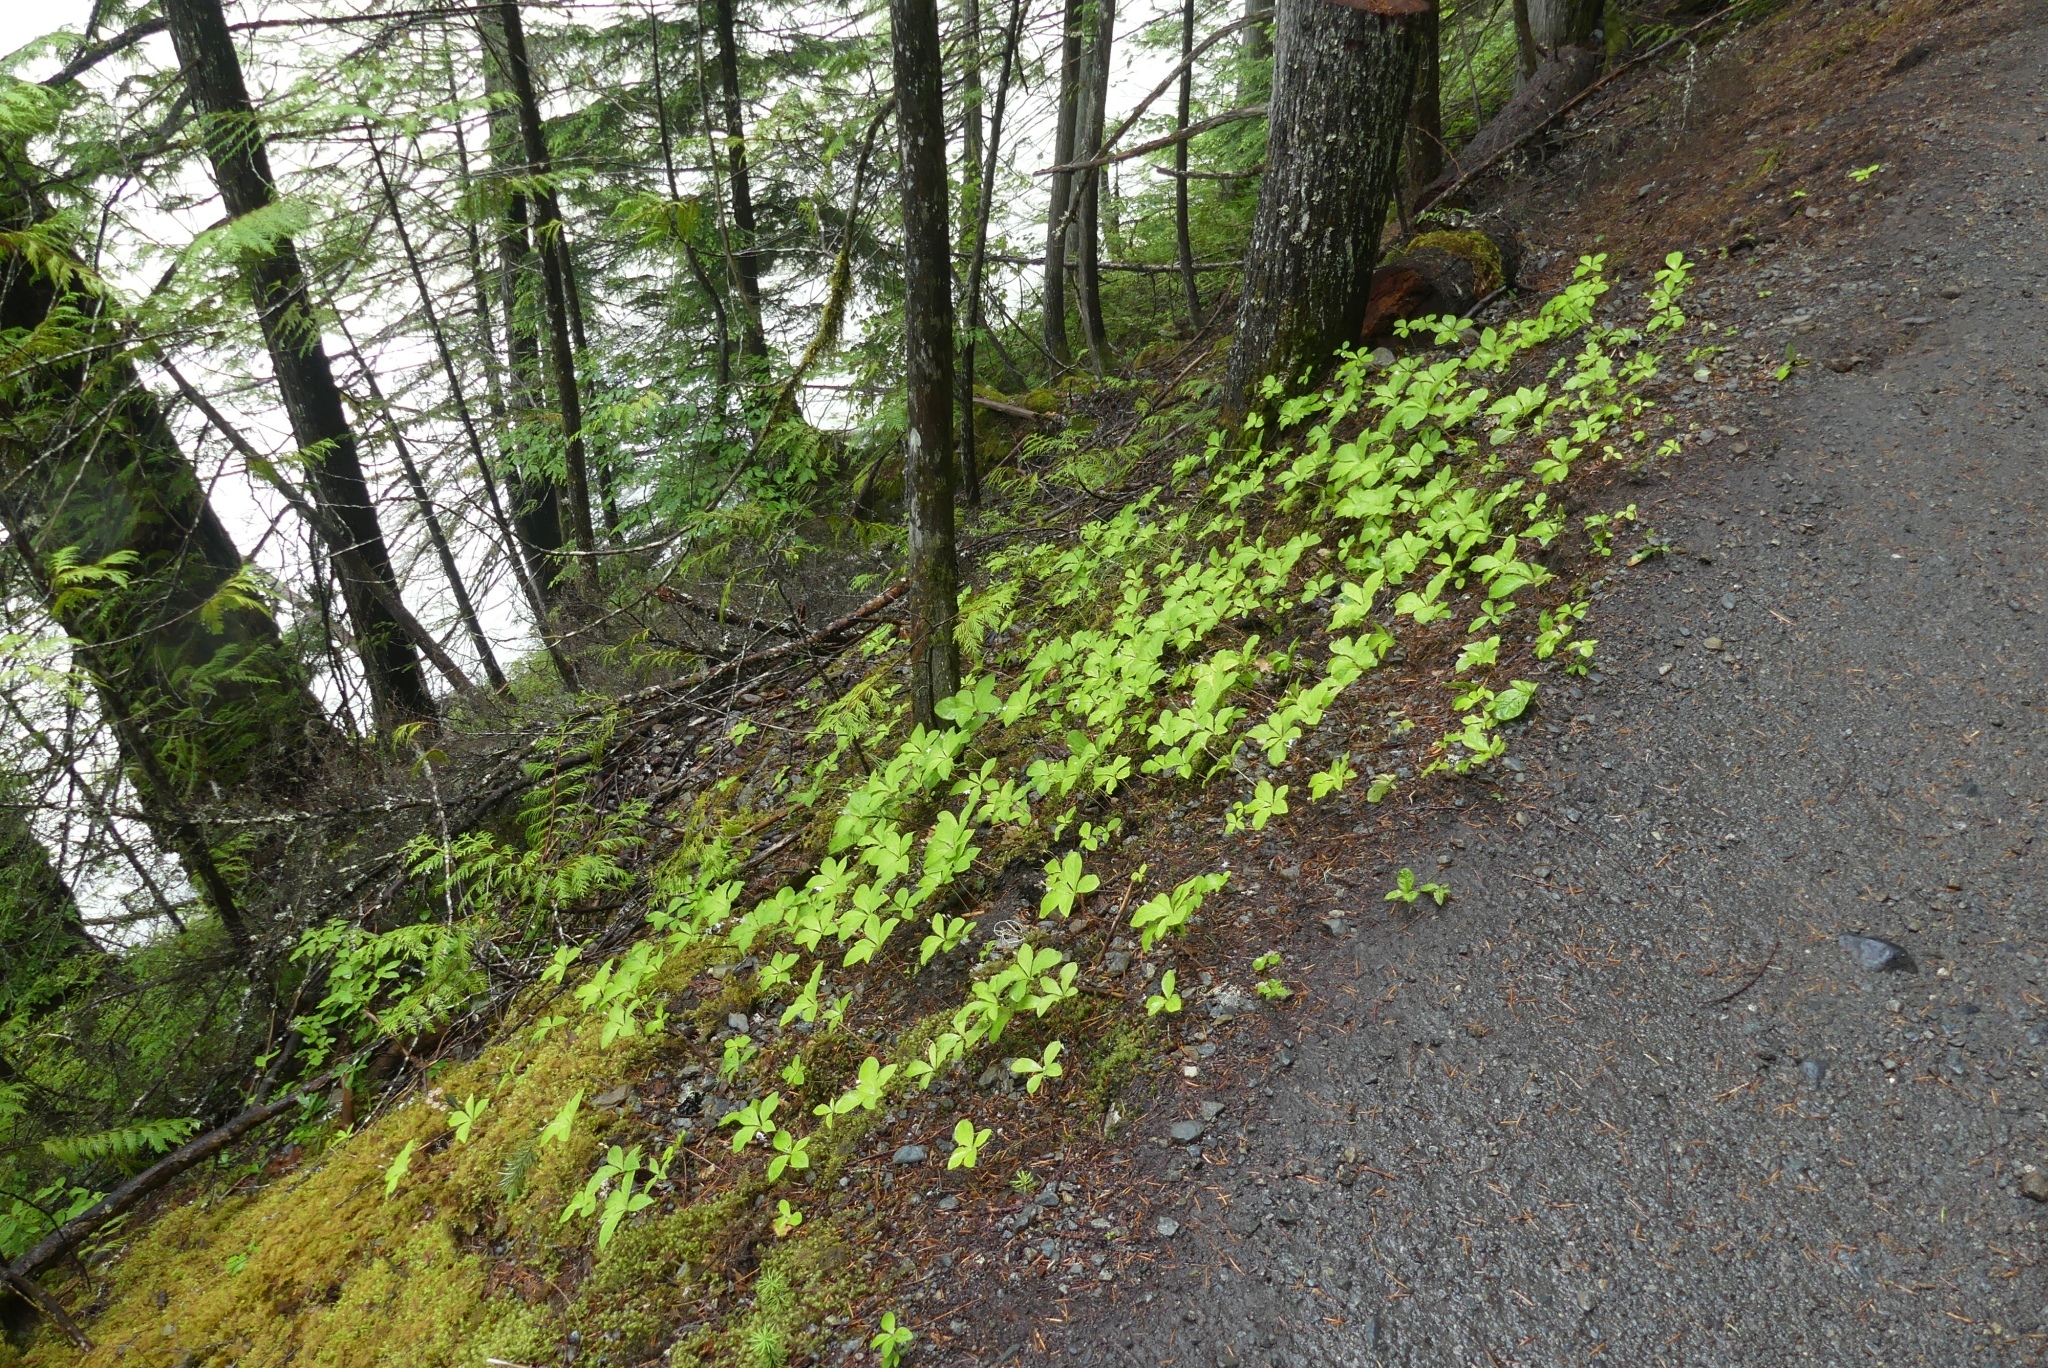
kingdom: Plantae
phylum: Tracheophyta
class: Magnoliopsida
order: Ericales
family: Primulaceae
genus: Lysimachia
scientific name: Lysimachia latifolia
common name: Pacific starflower
